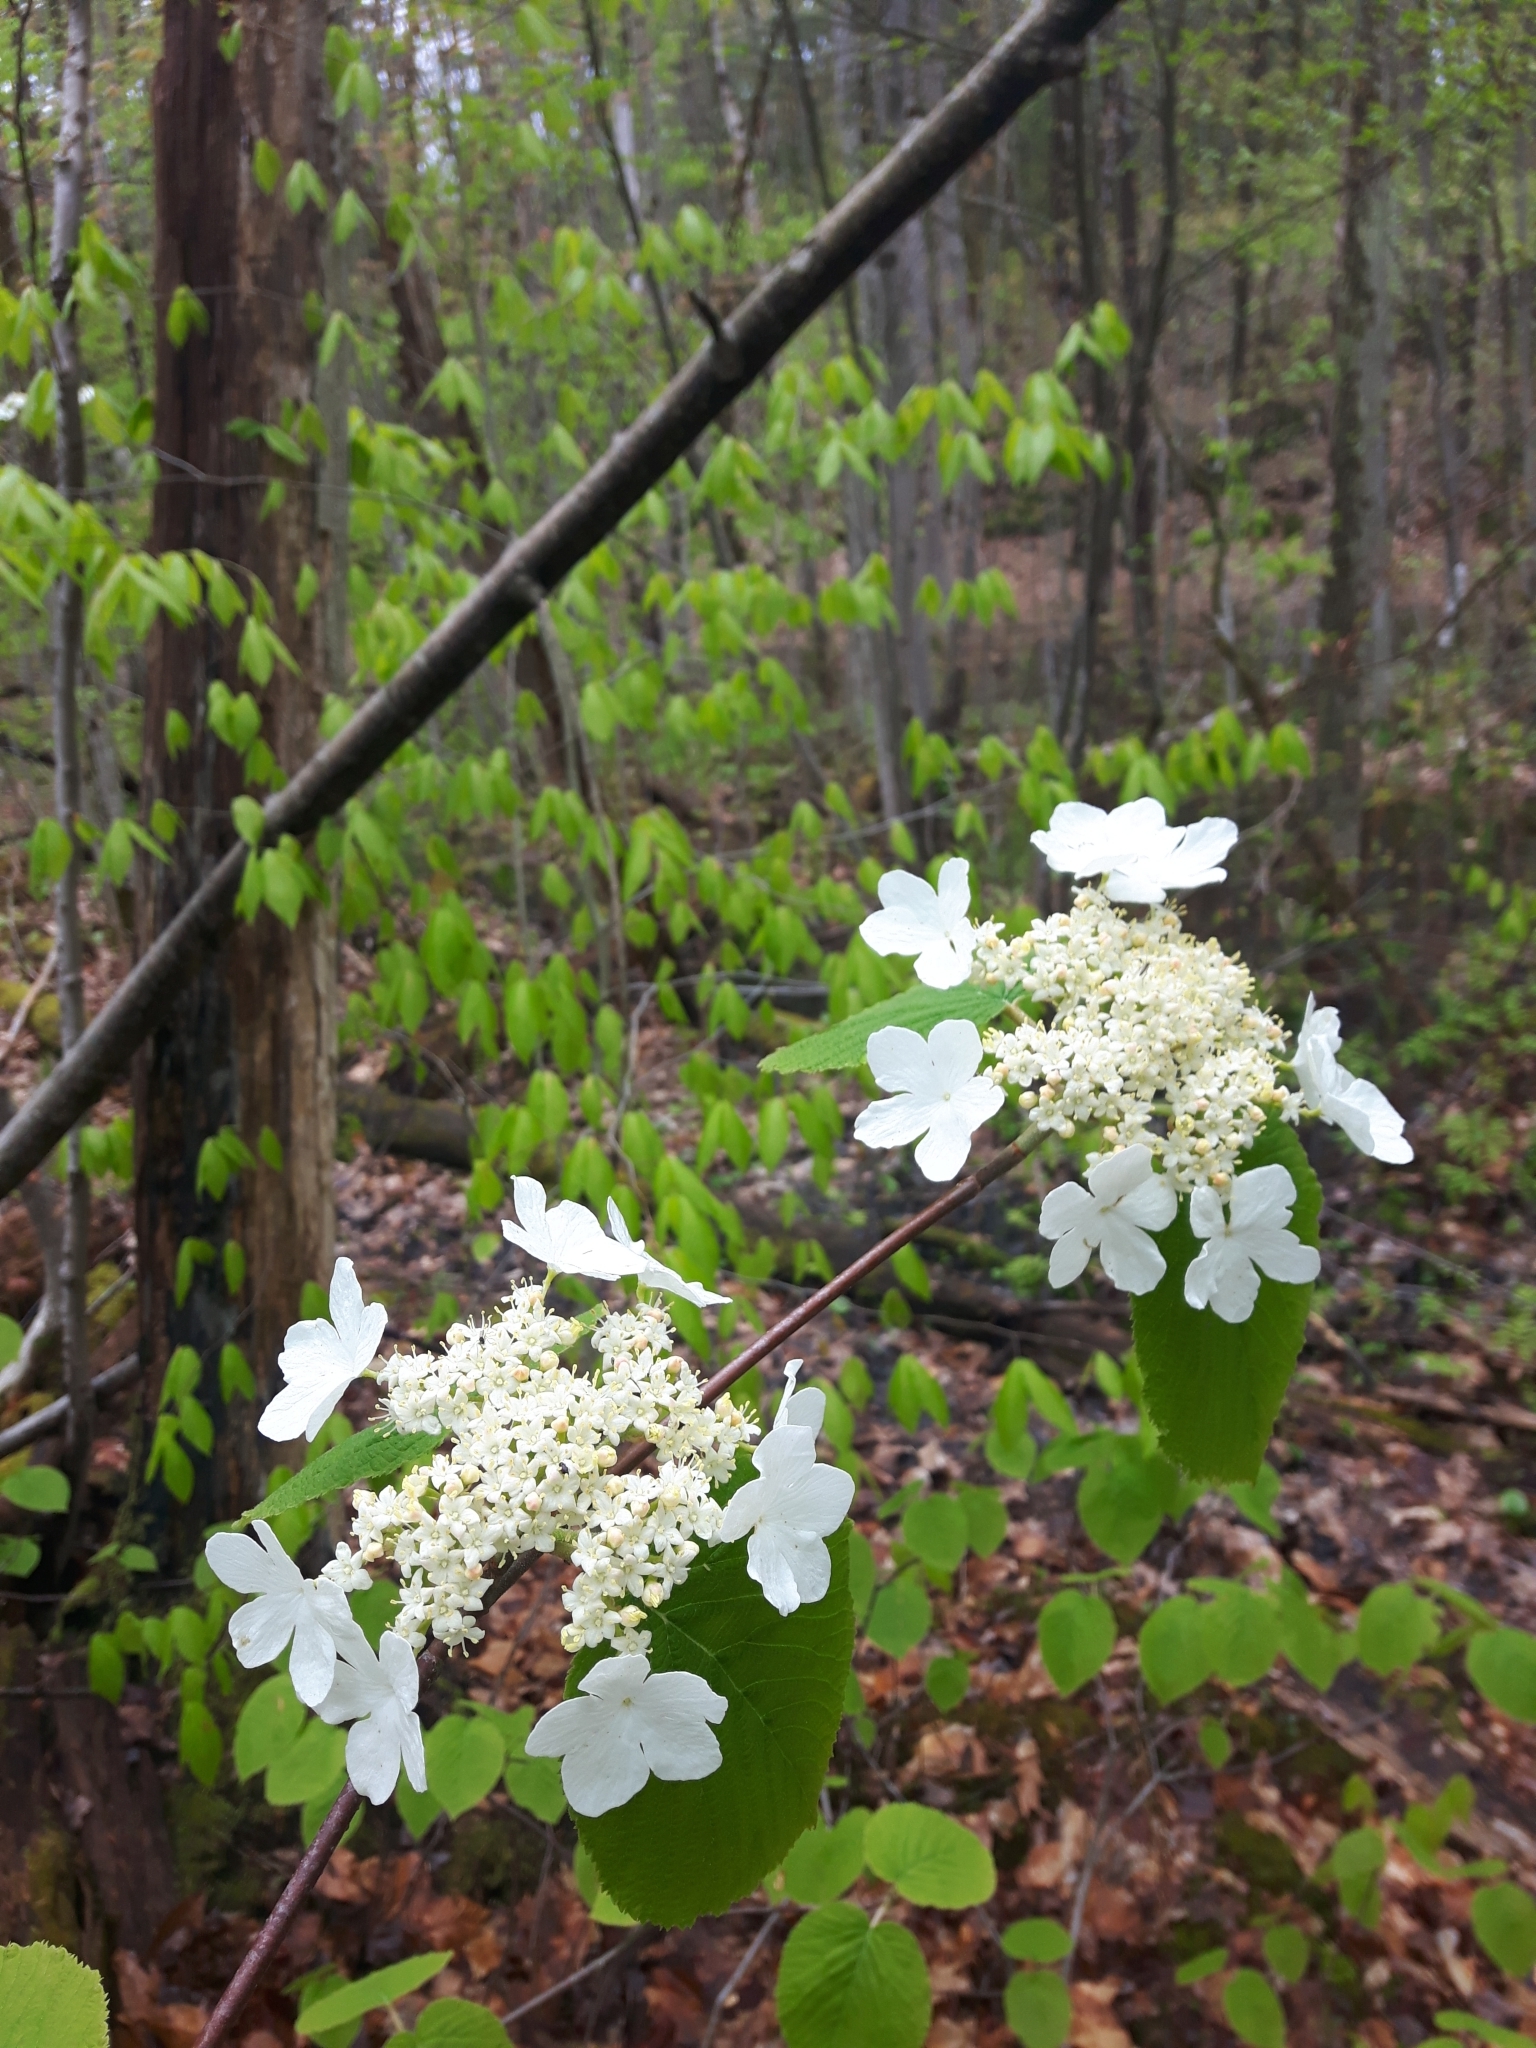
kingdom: Plantae
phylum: Tracheophyta
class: Magnoliopsida
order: Dipsacales
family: Viburnaceae
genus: Viburnum
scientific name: Viburnum lantanoides
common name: Hobblebush
